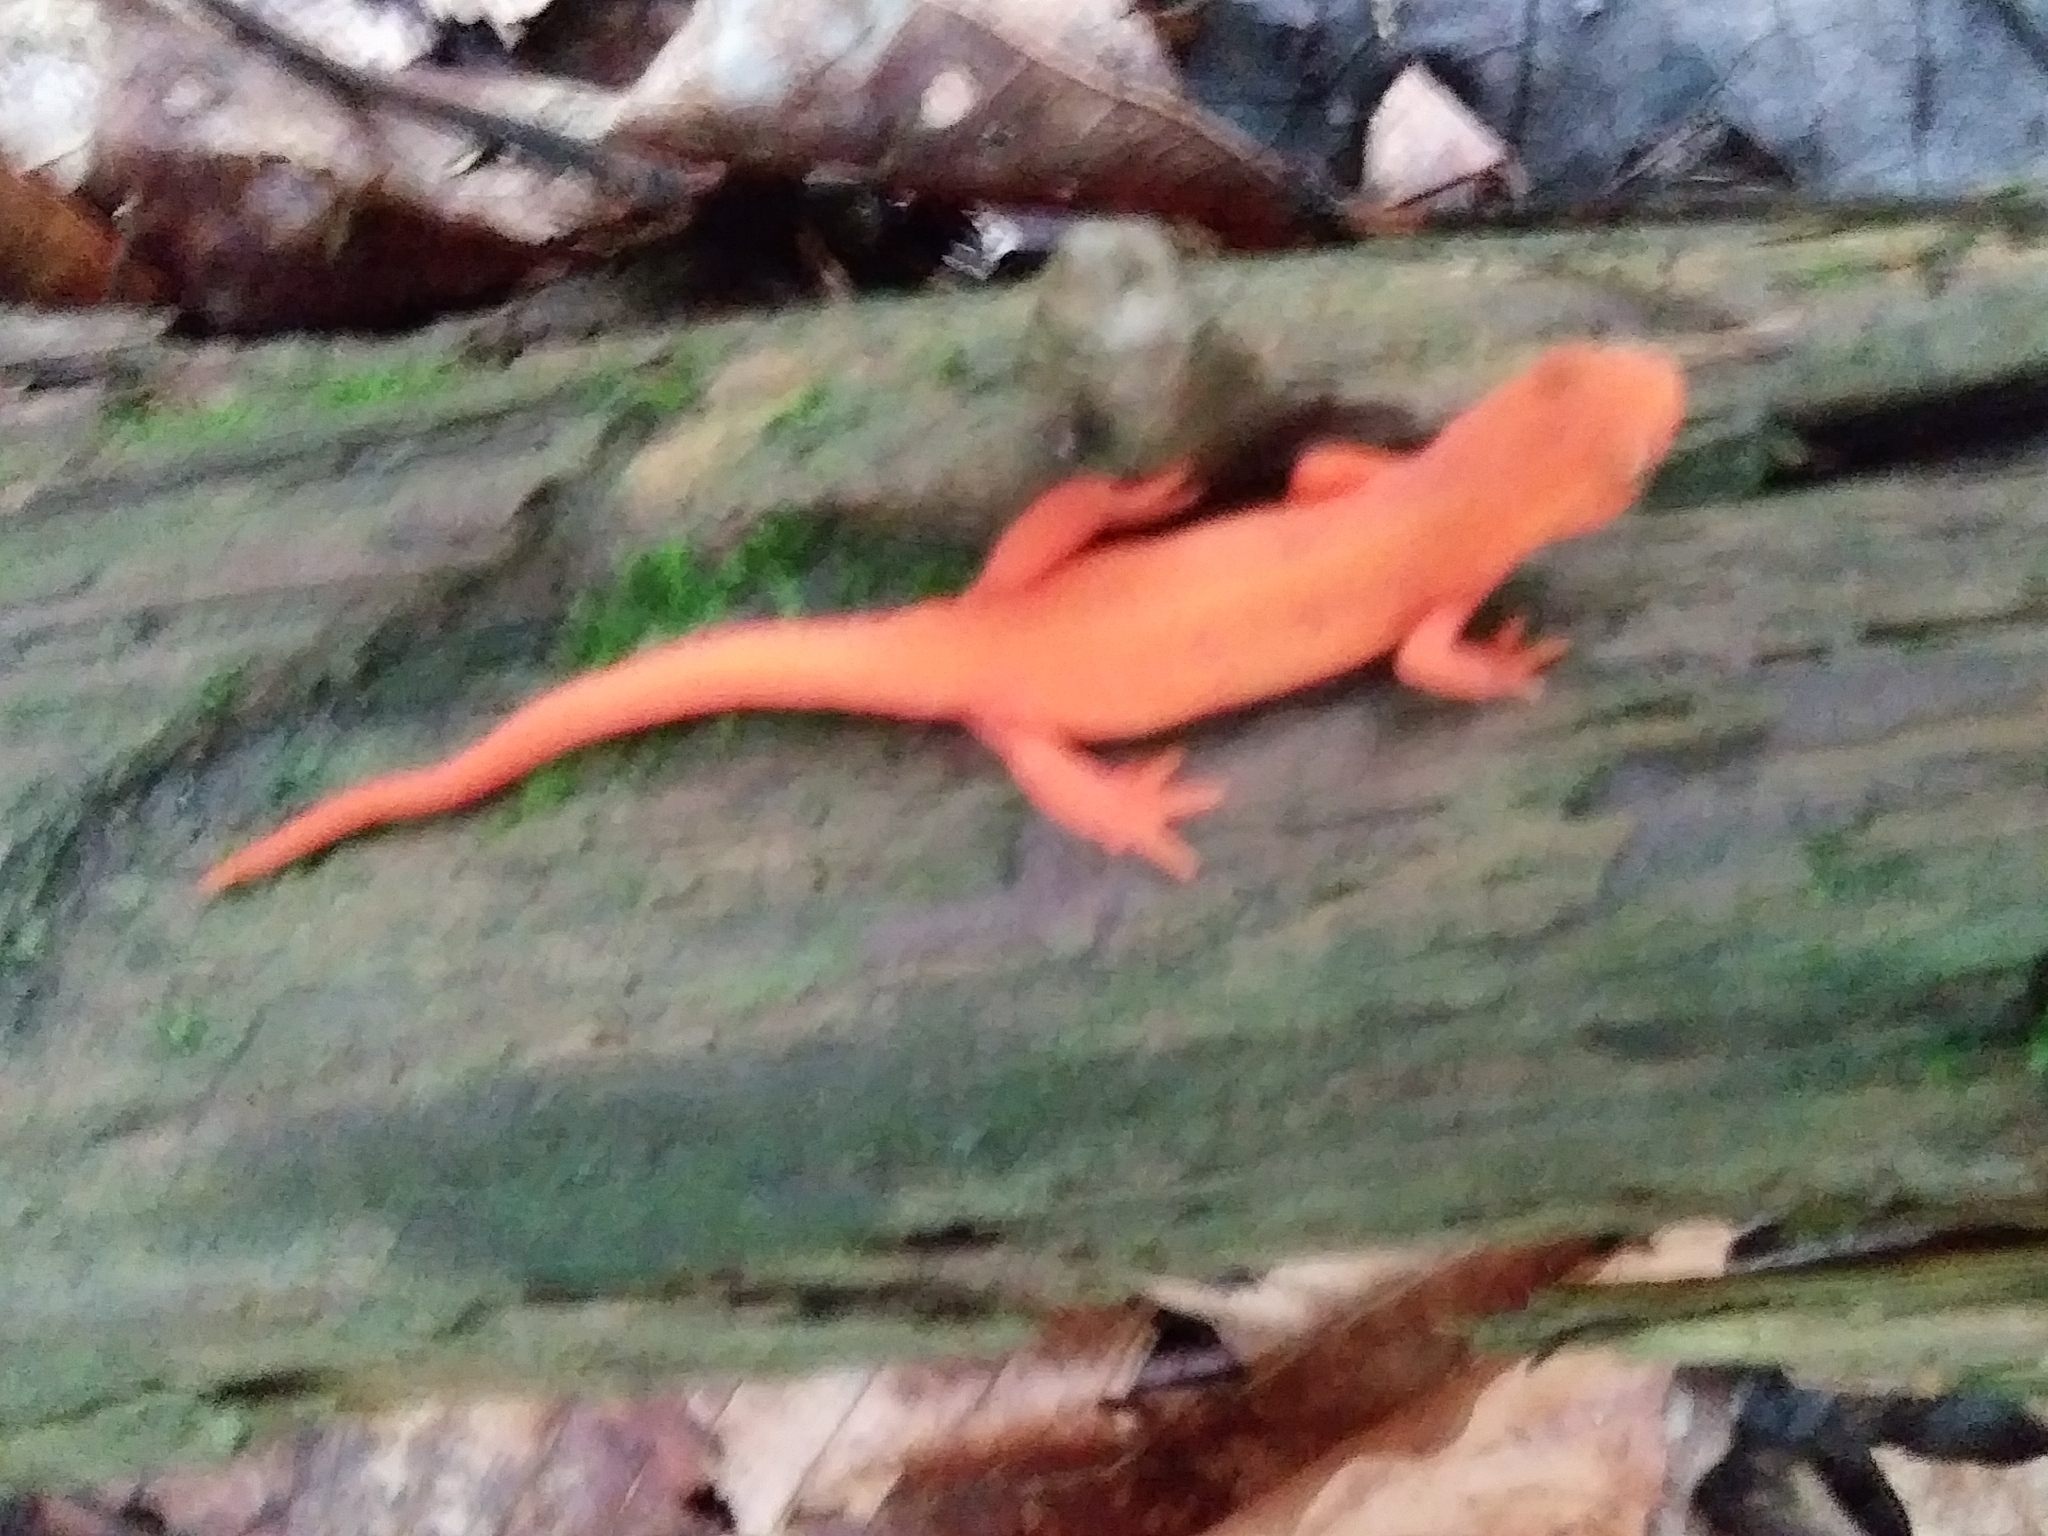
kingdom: Animalia
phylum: Chordata
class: Amphibia
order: Caudata
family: Salamandridae
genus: Notophthalmus
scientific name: Notophthalmus viridescens
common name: Eastern newt
